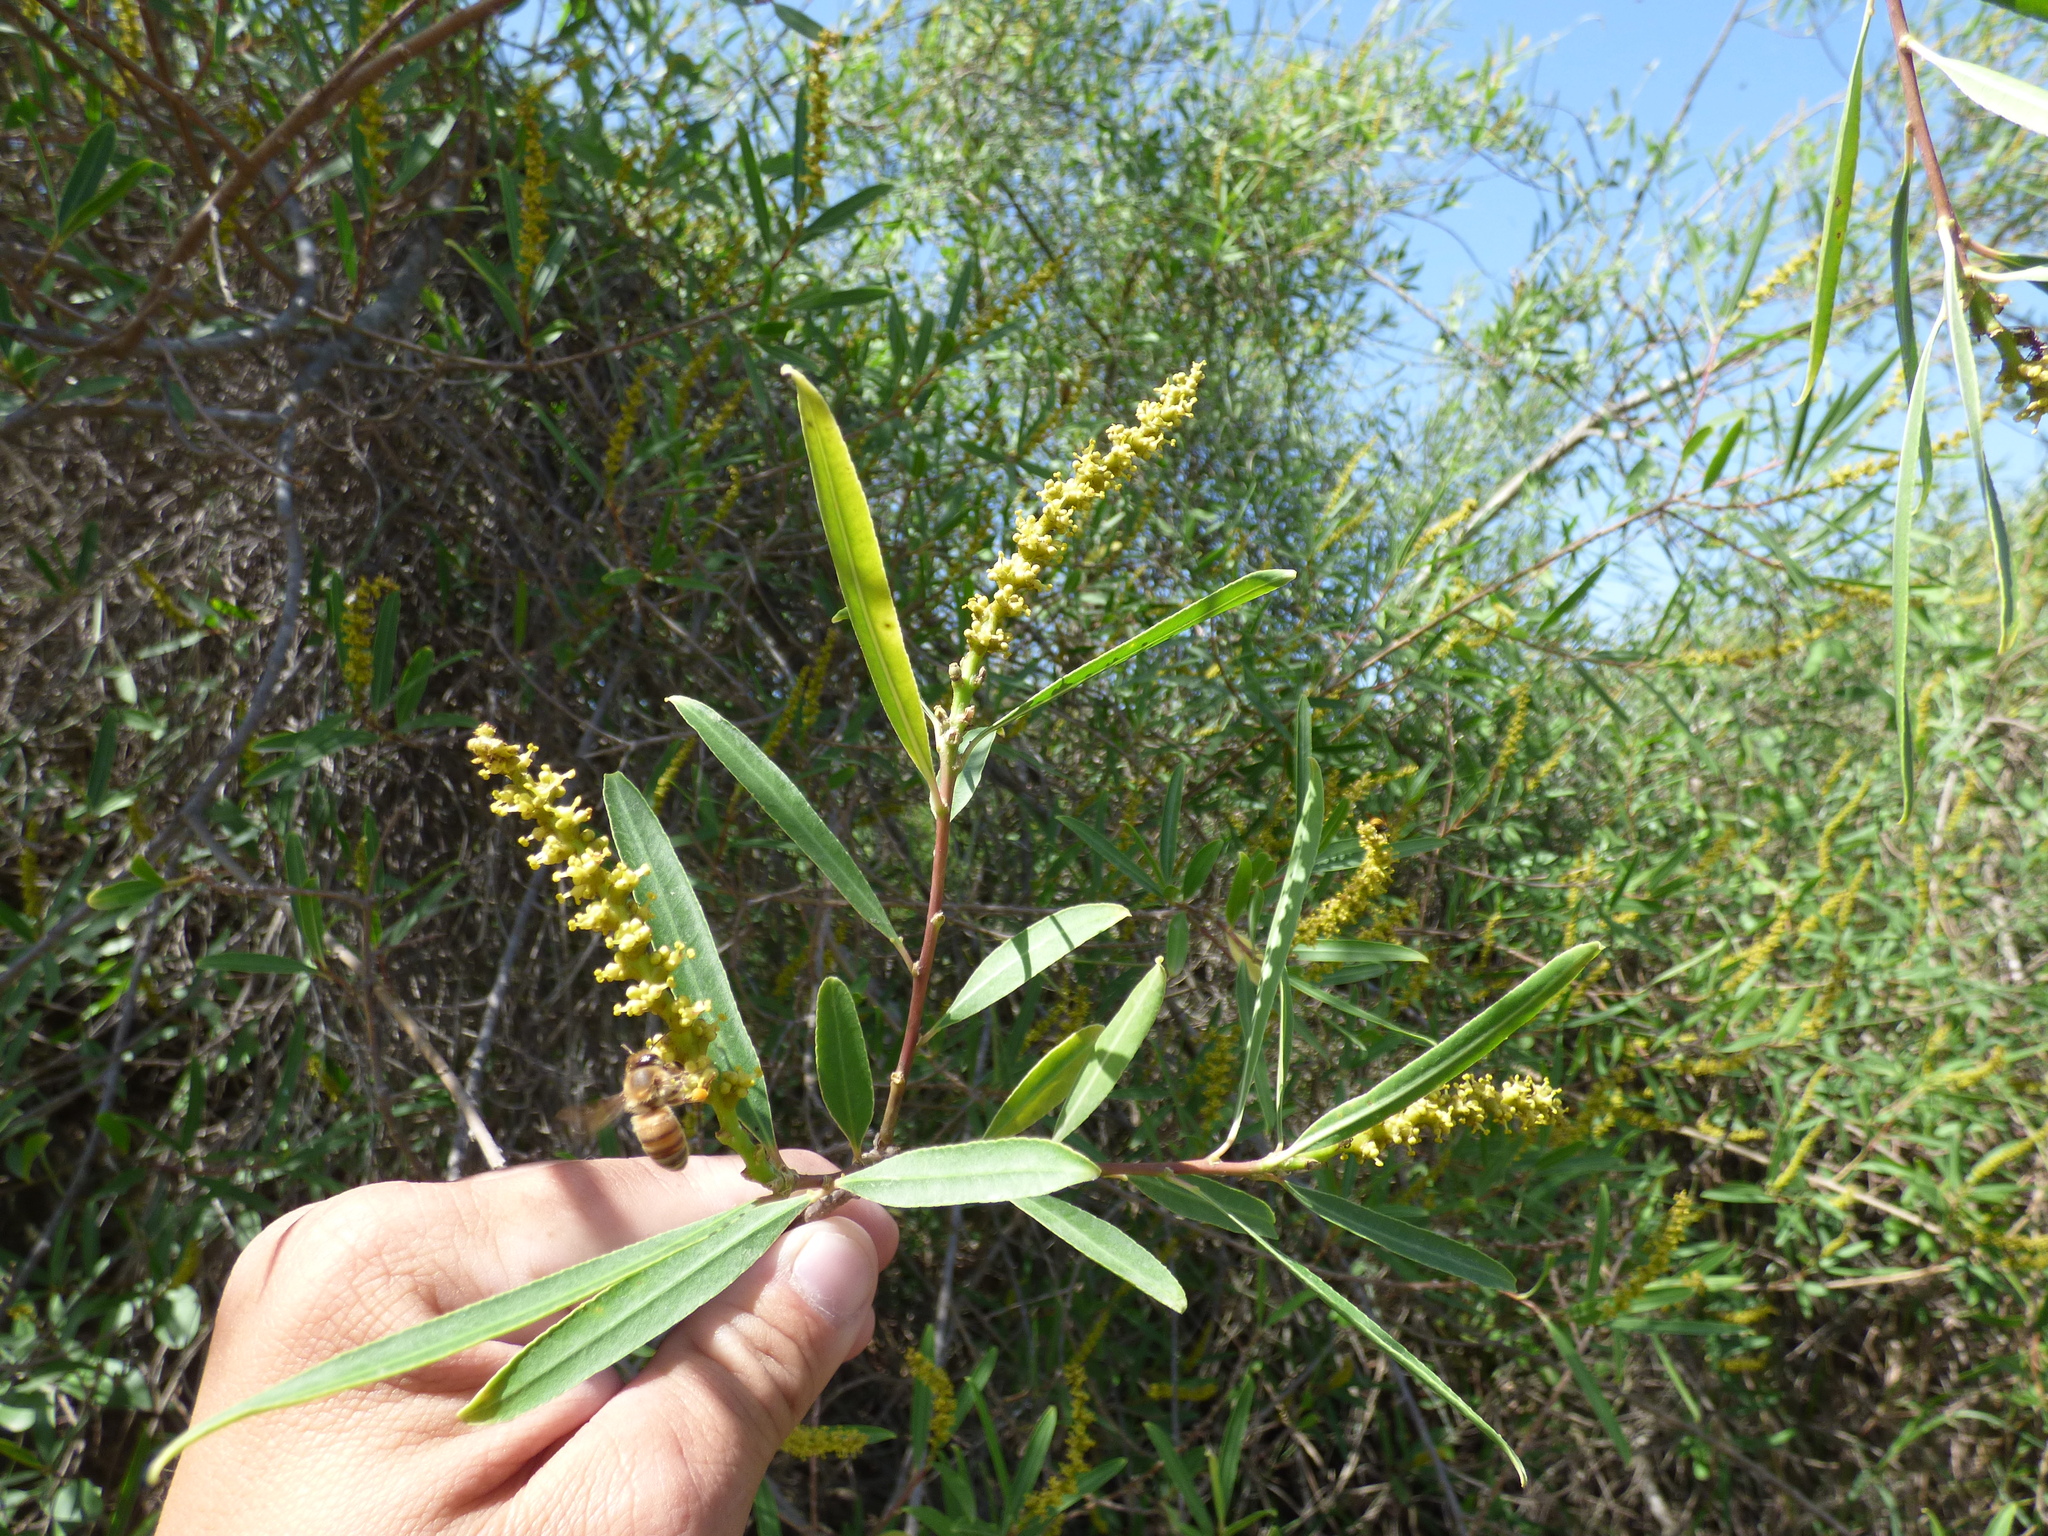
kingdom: Plantae
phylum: Tracheophyta
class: Magnoliopsida
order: Malpighiales
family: Euphorbiaceae
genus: Sapium
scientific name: Sapium haematospermum
